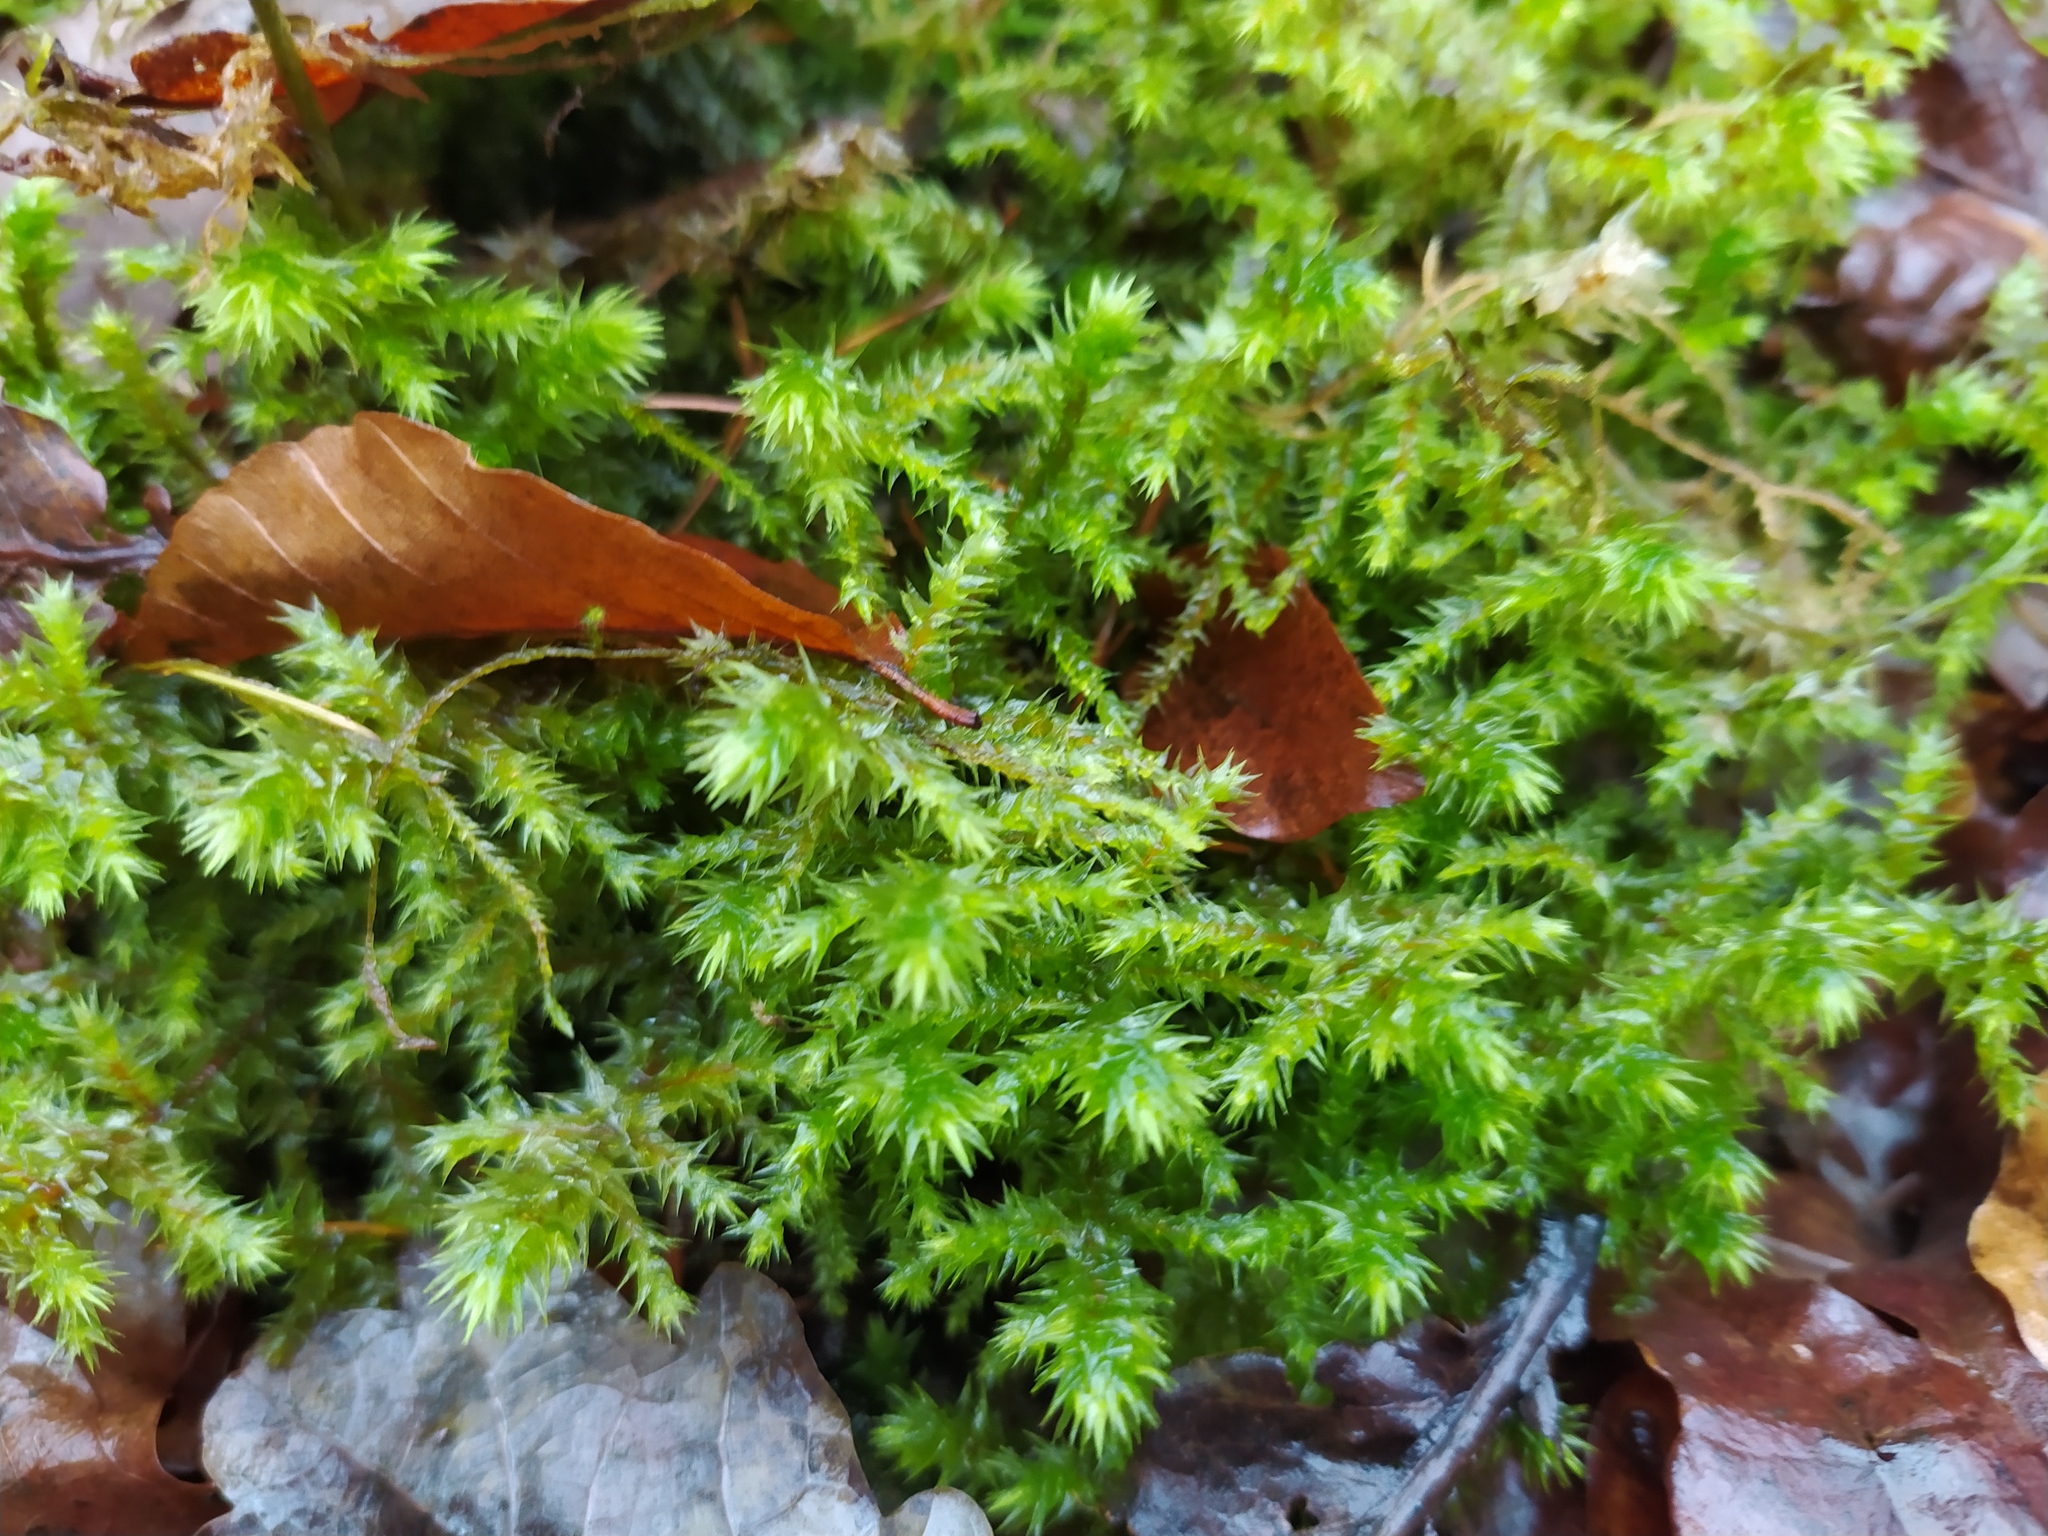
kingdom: Plantae
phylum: Bryophyta
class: Bryopsida
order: Hypnales
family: Hylocomiaceae
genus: Hylocomiadelphus
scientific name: Hylocomiadelphus triquetrus
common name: Rough goose neck moss
